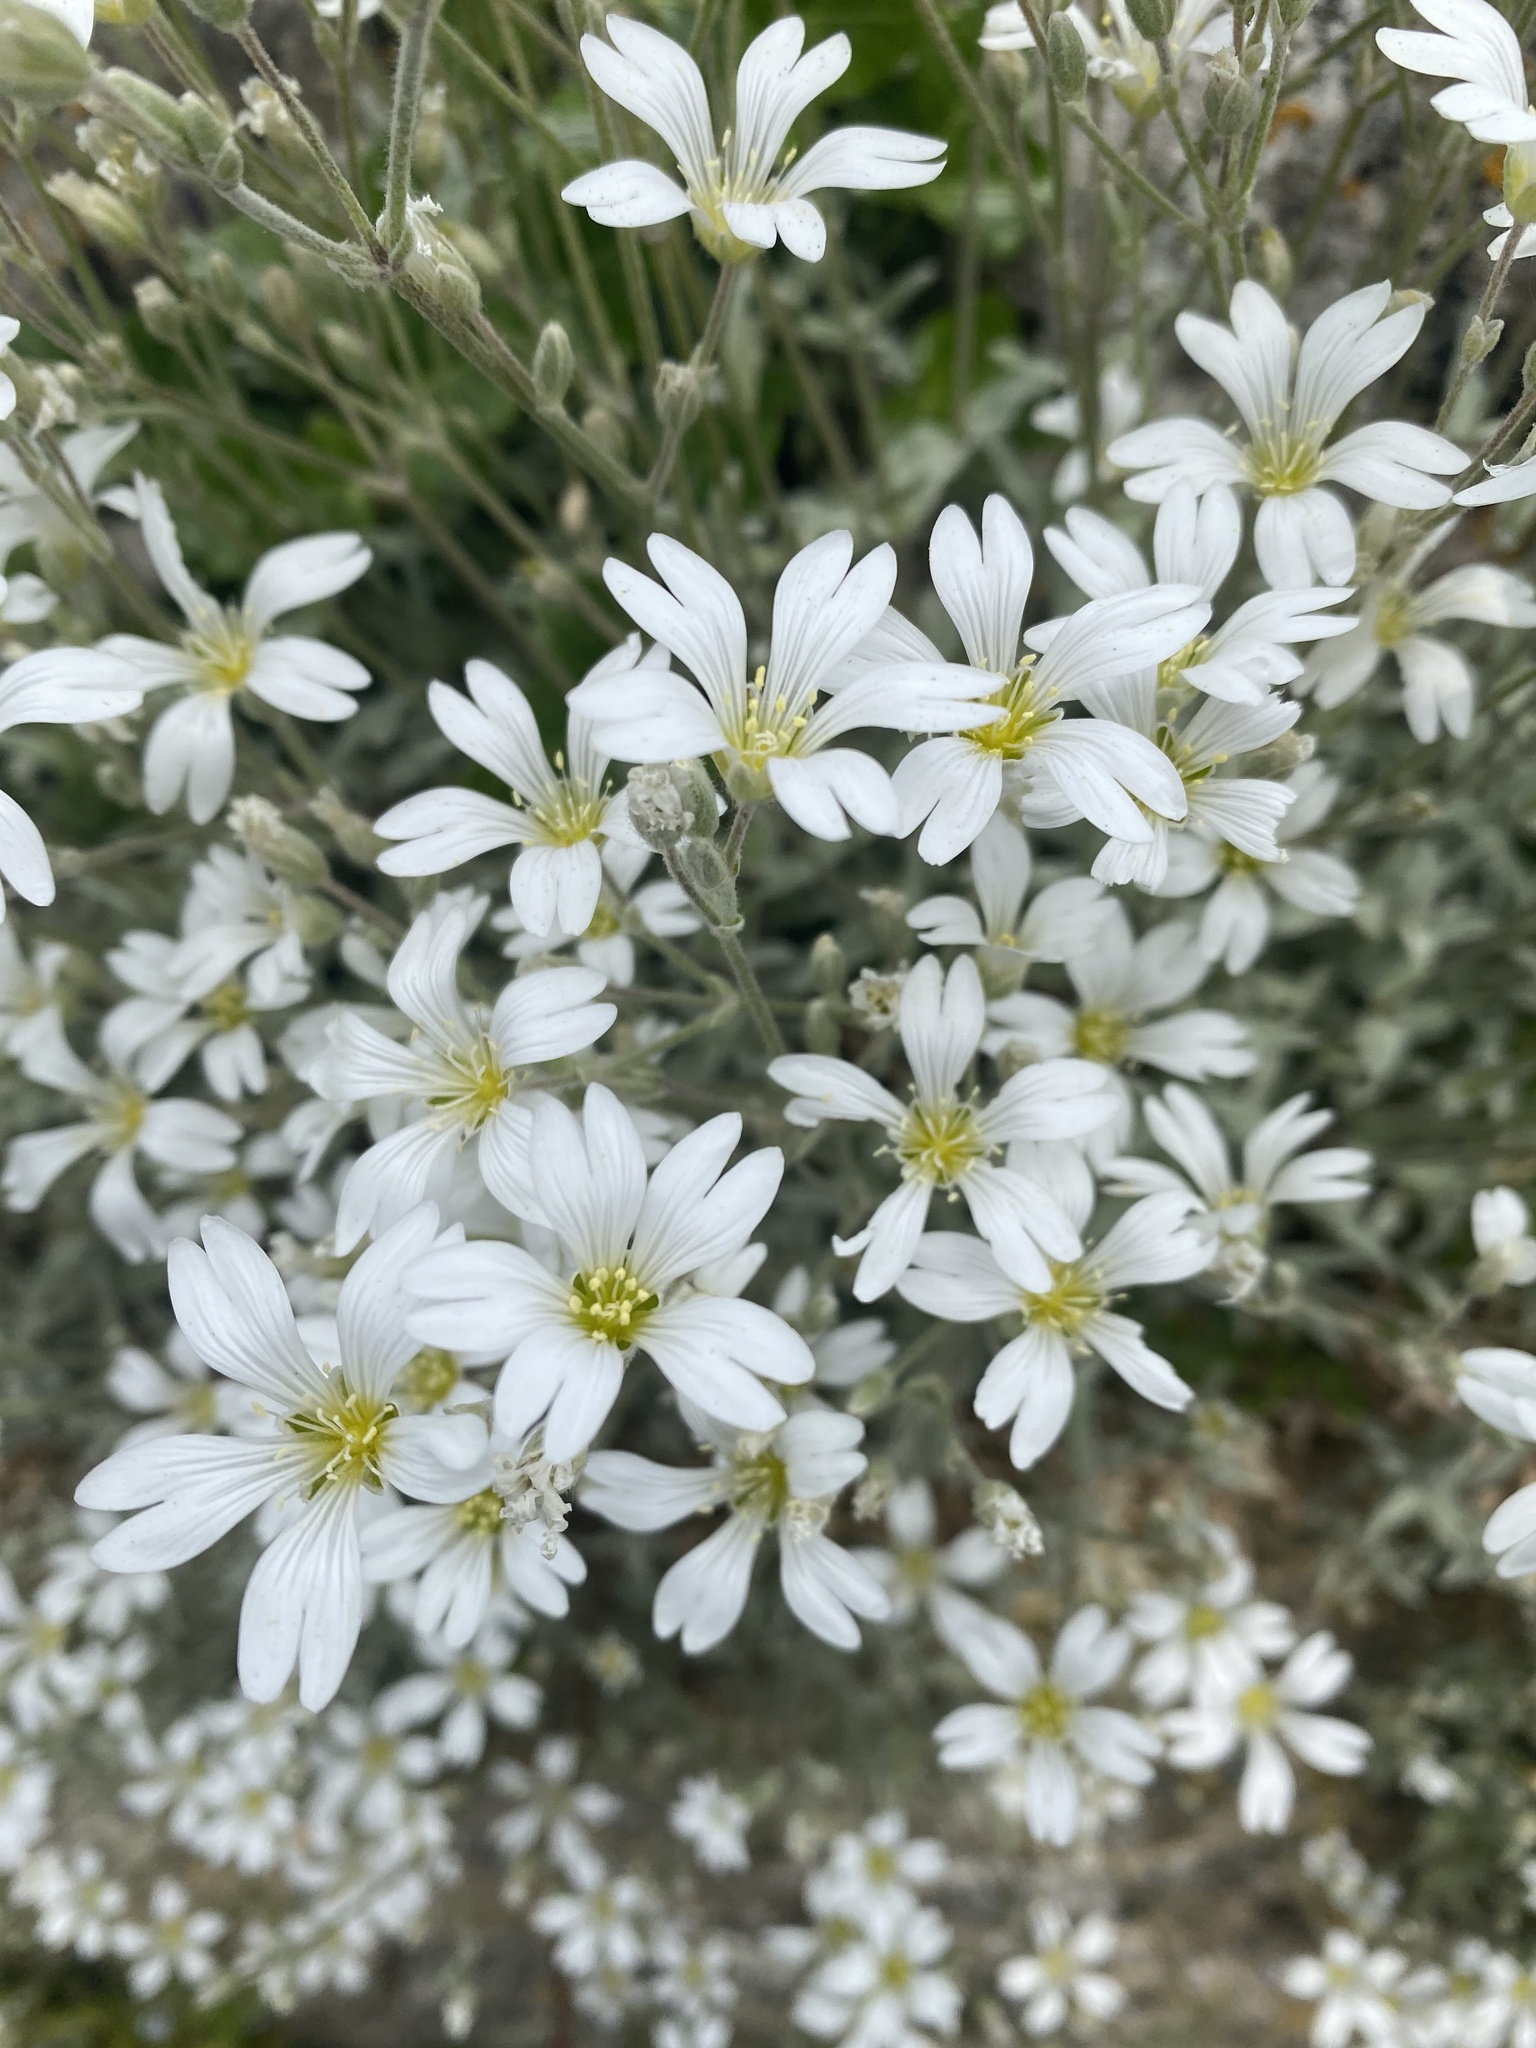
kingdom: Plantae
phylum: Tracheophyta
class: Magnoliopsida
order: Caryophyllales
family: Caryophyllaceae
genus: Cerastium
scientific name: Cerastium tomentosum
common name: Snow-in-summer
